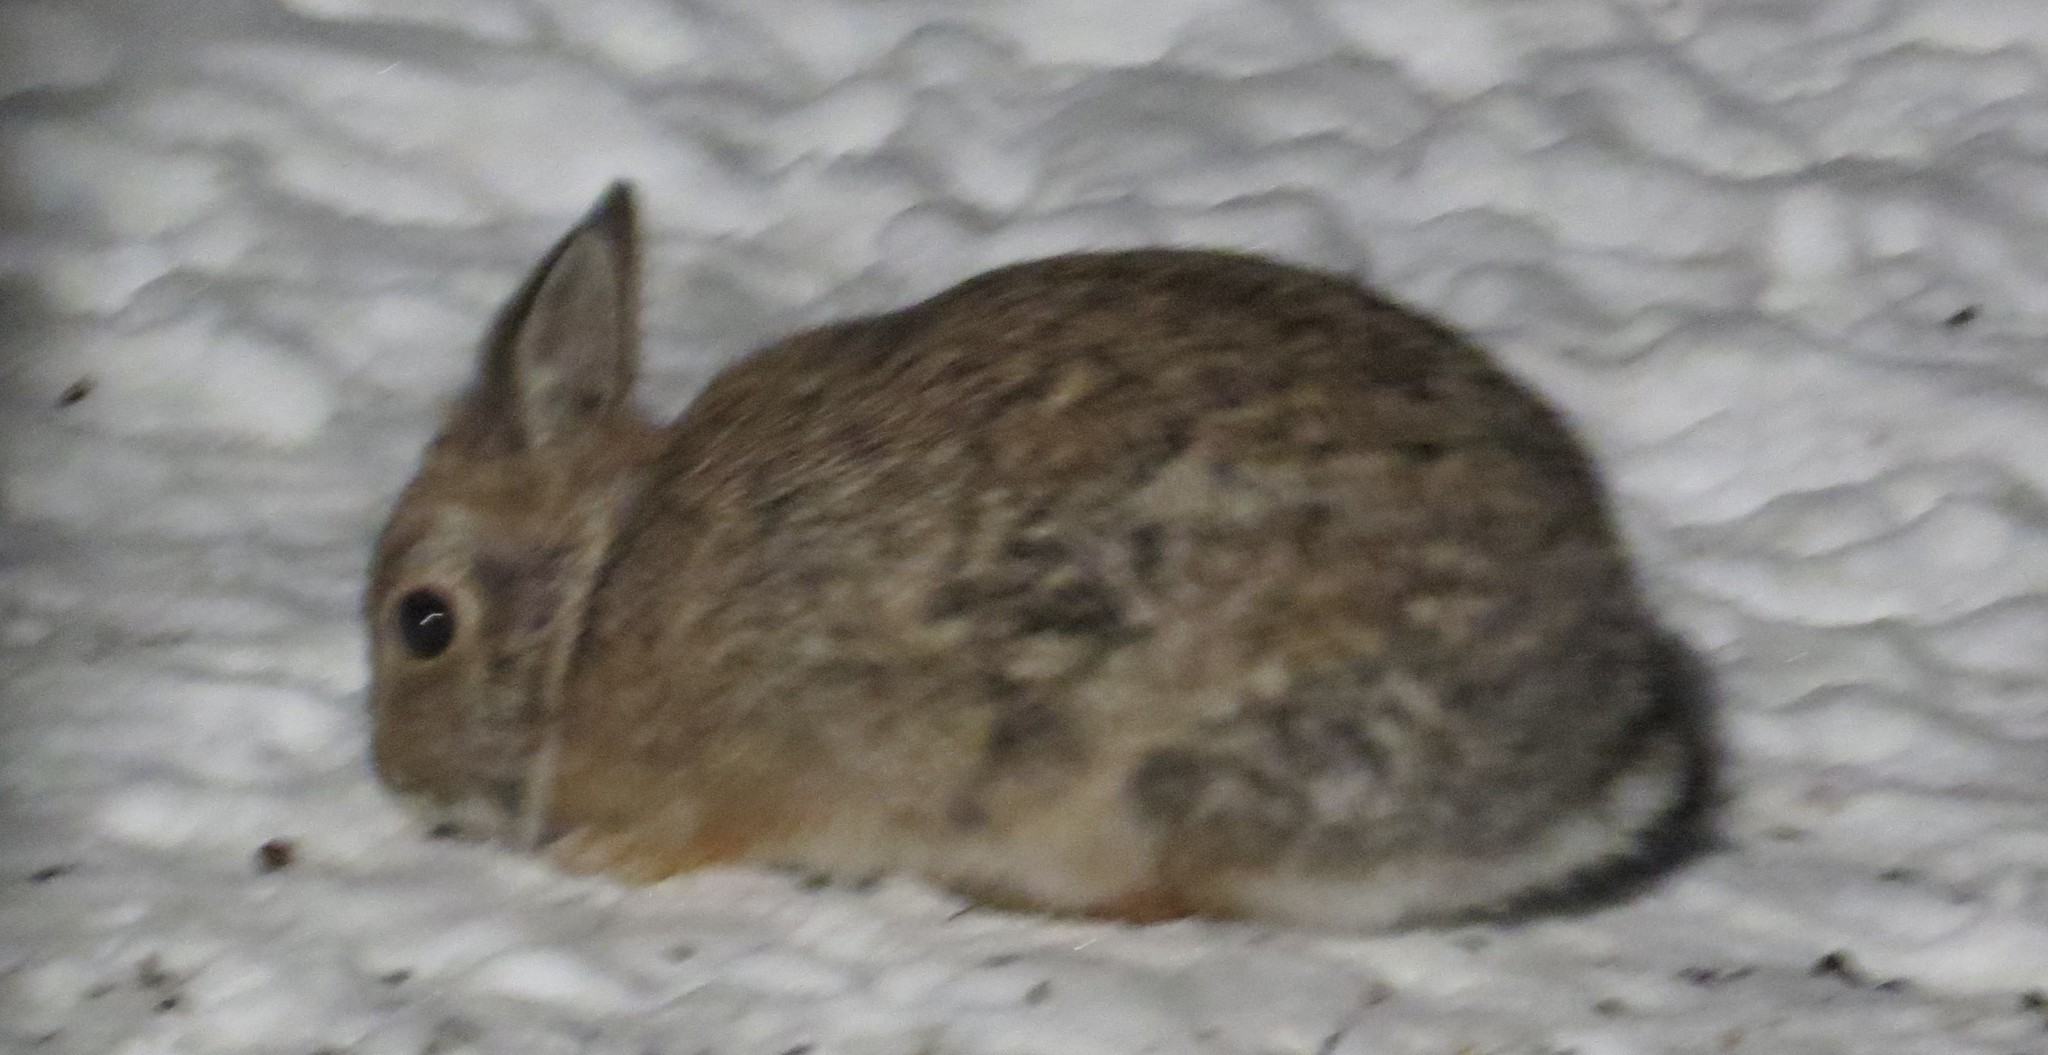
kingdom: Animalia
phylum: Chordata
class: Mammalia
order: Lagomorpha
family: Leporidae
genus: Sylvilagus
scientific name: Sylvilagus floridanus
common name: Eastern cottontail
